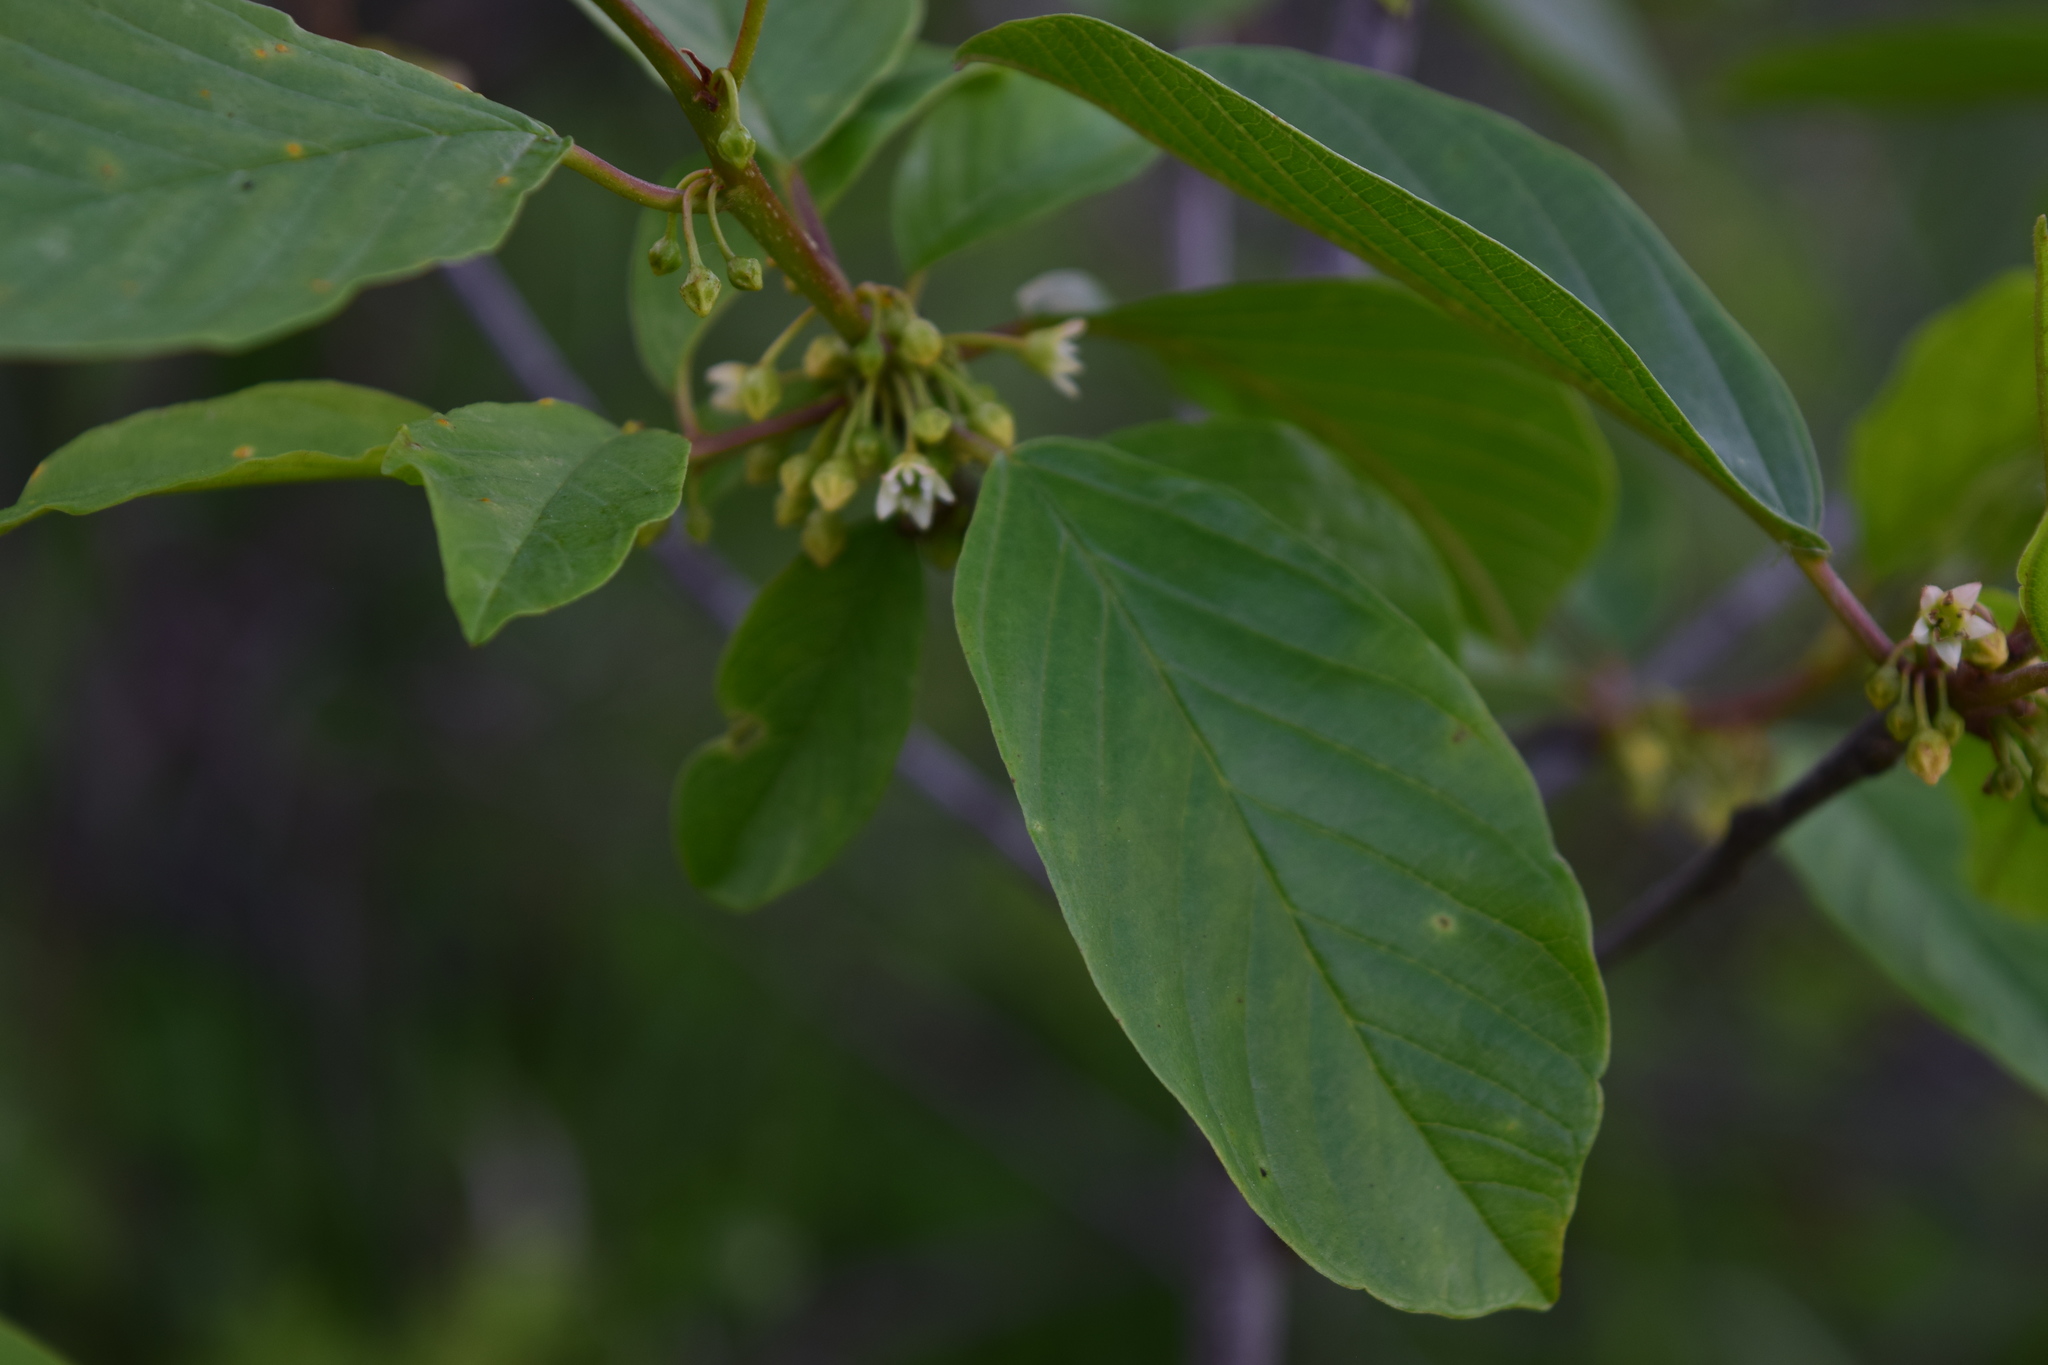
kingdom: Plantae
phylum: Tracheophyta
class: Magnoliopsida
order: Rosales
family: Rhamnaceae
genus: Frangula
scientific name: Frangula alnus
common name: Alder buckthorn
